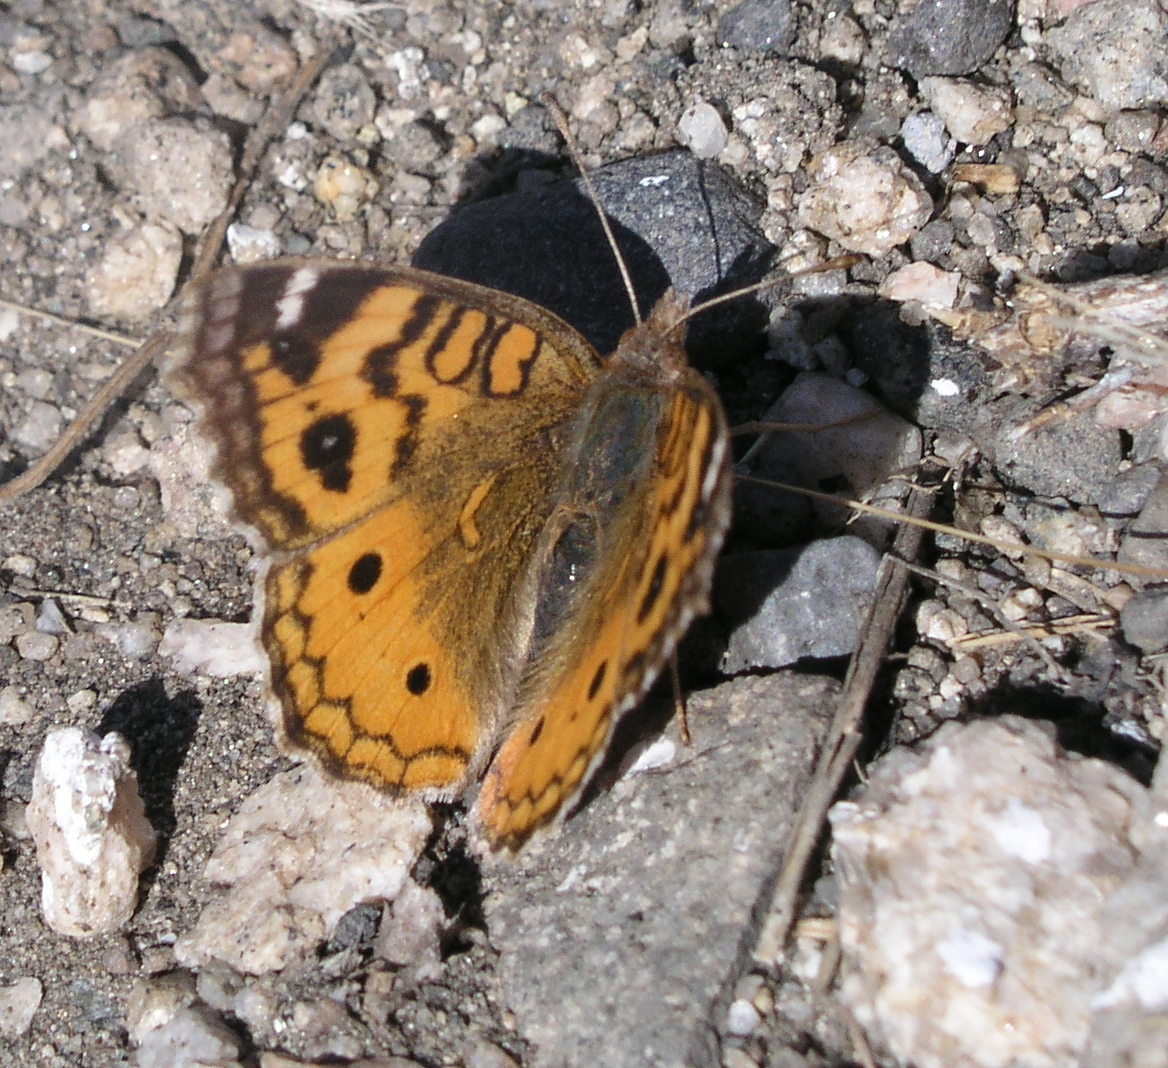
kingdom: Animalia
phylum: Arthropoda
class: Insecta
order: Lepidoptera
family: Nymphalidae
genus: Junonia
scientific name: Junonia vestina
